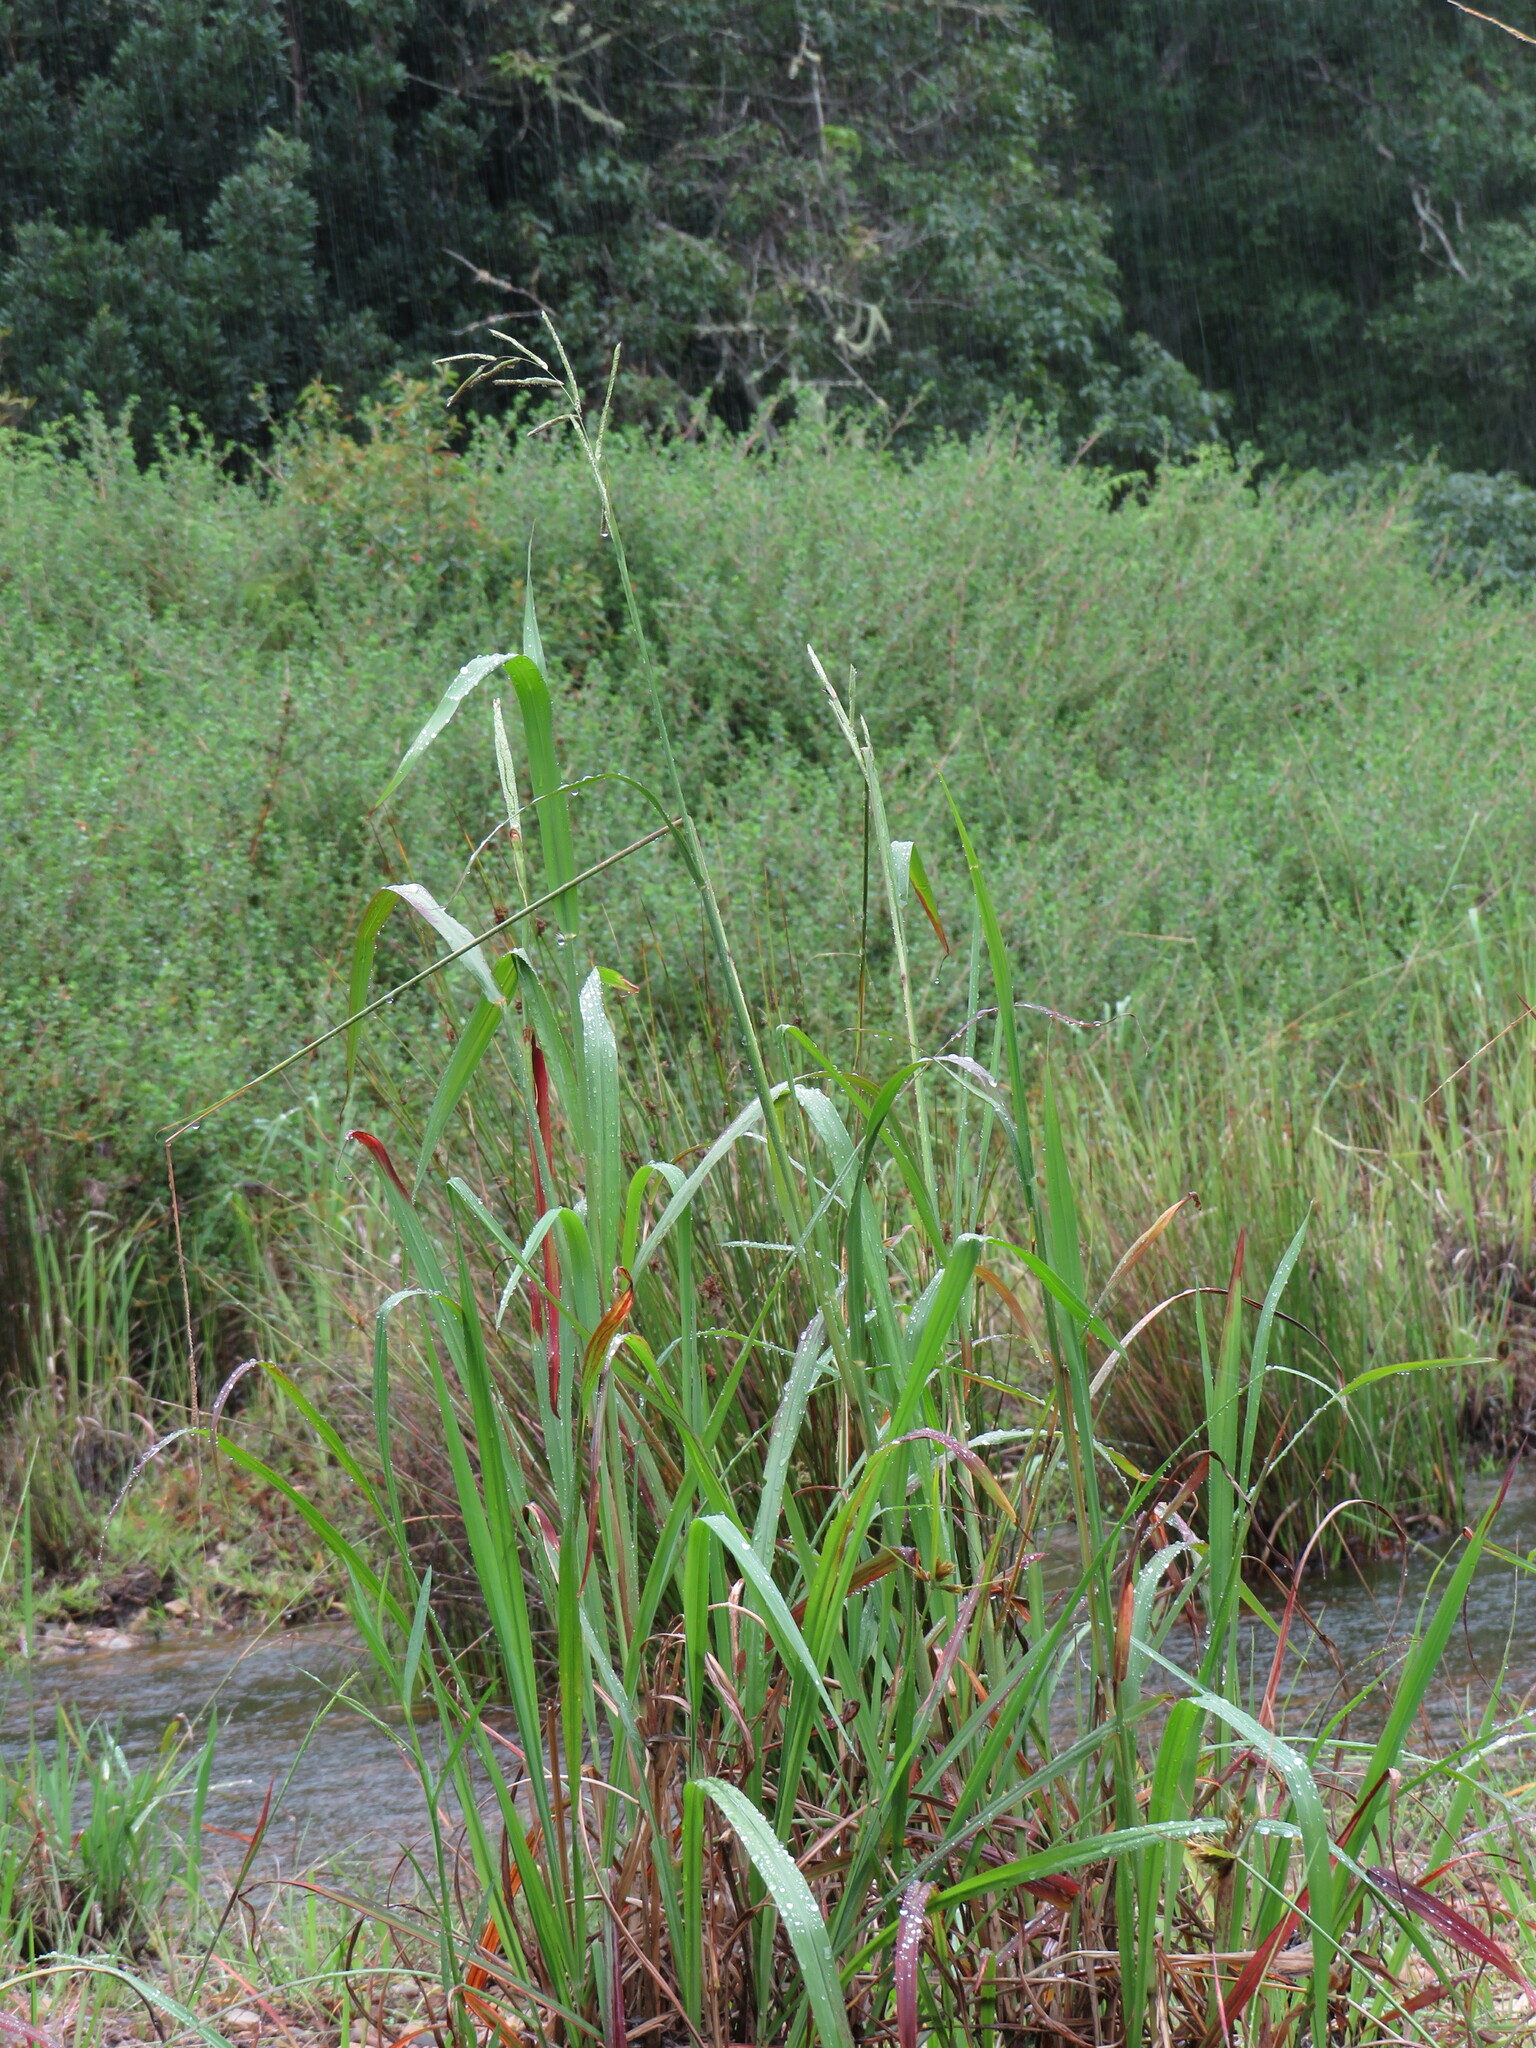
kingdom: Plantae
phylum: Tracheophyta
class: Liliopsida
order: Poales
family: Poaceae
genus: Paspalum
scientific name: Paspalum urvillei
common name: Vasey's grass
